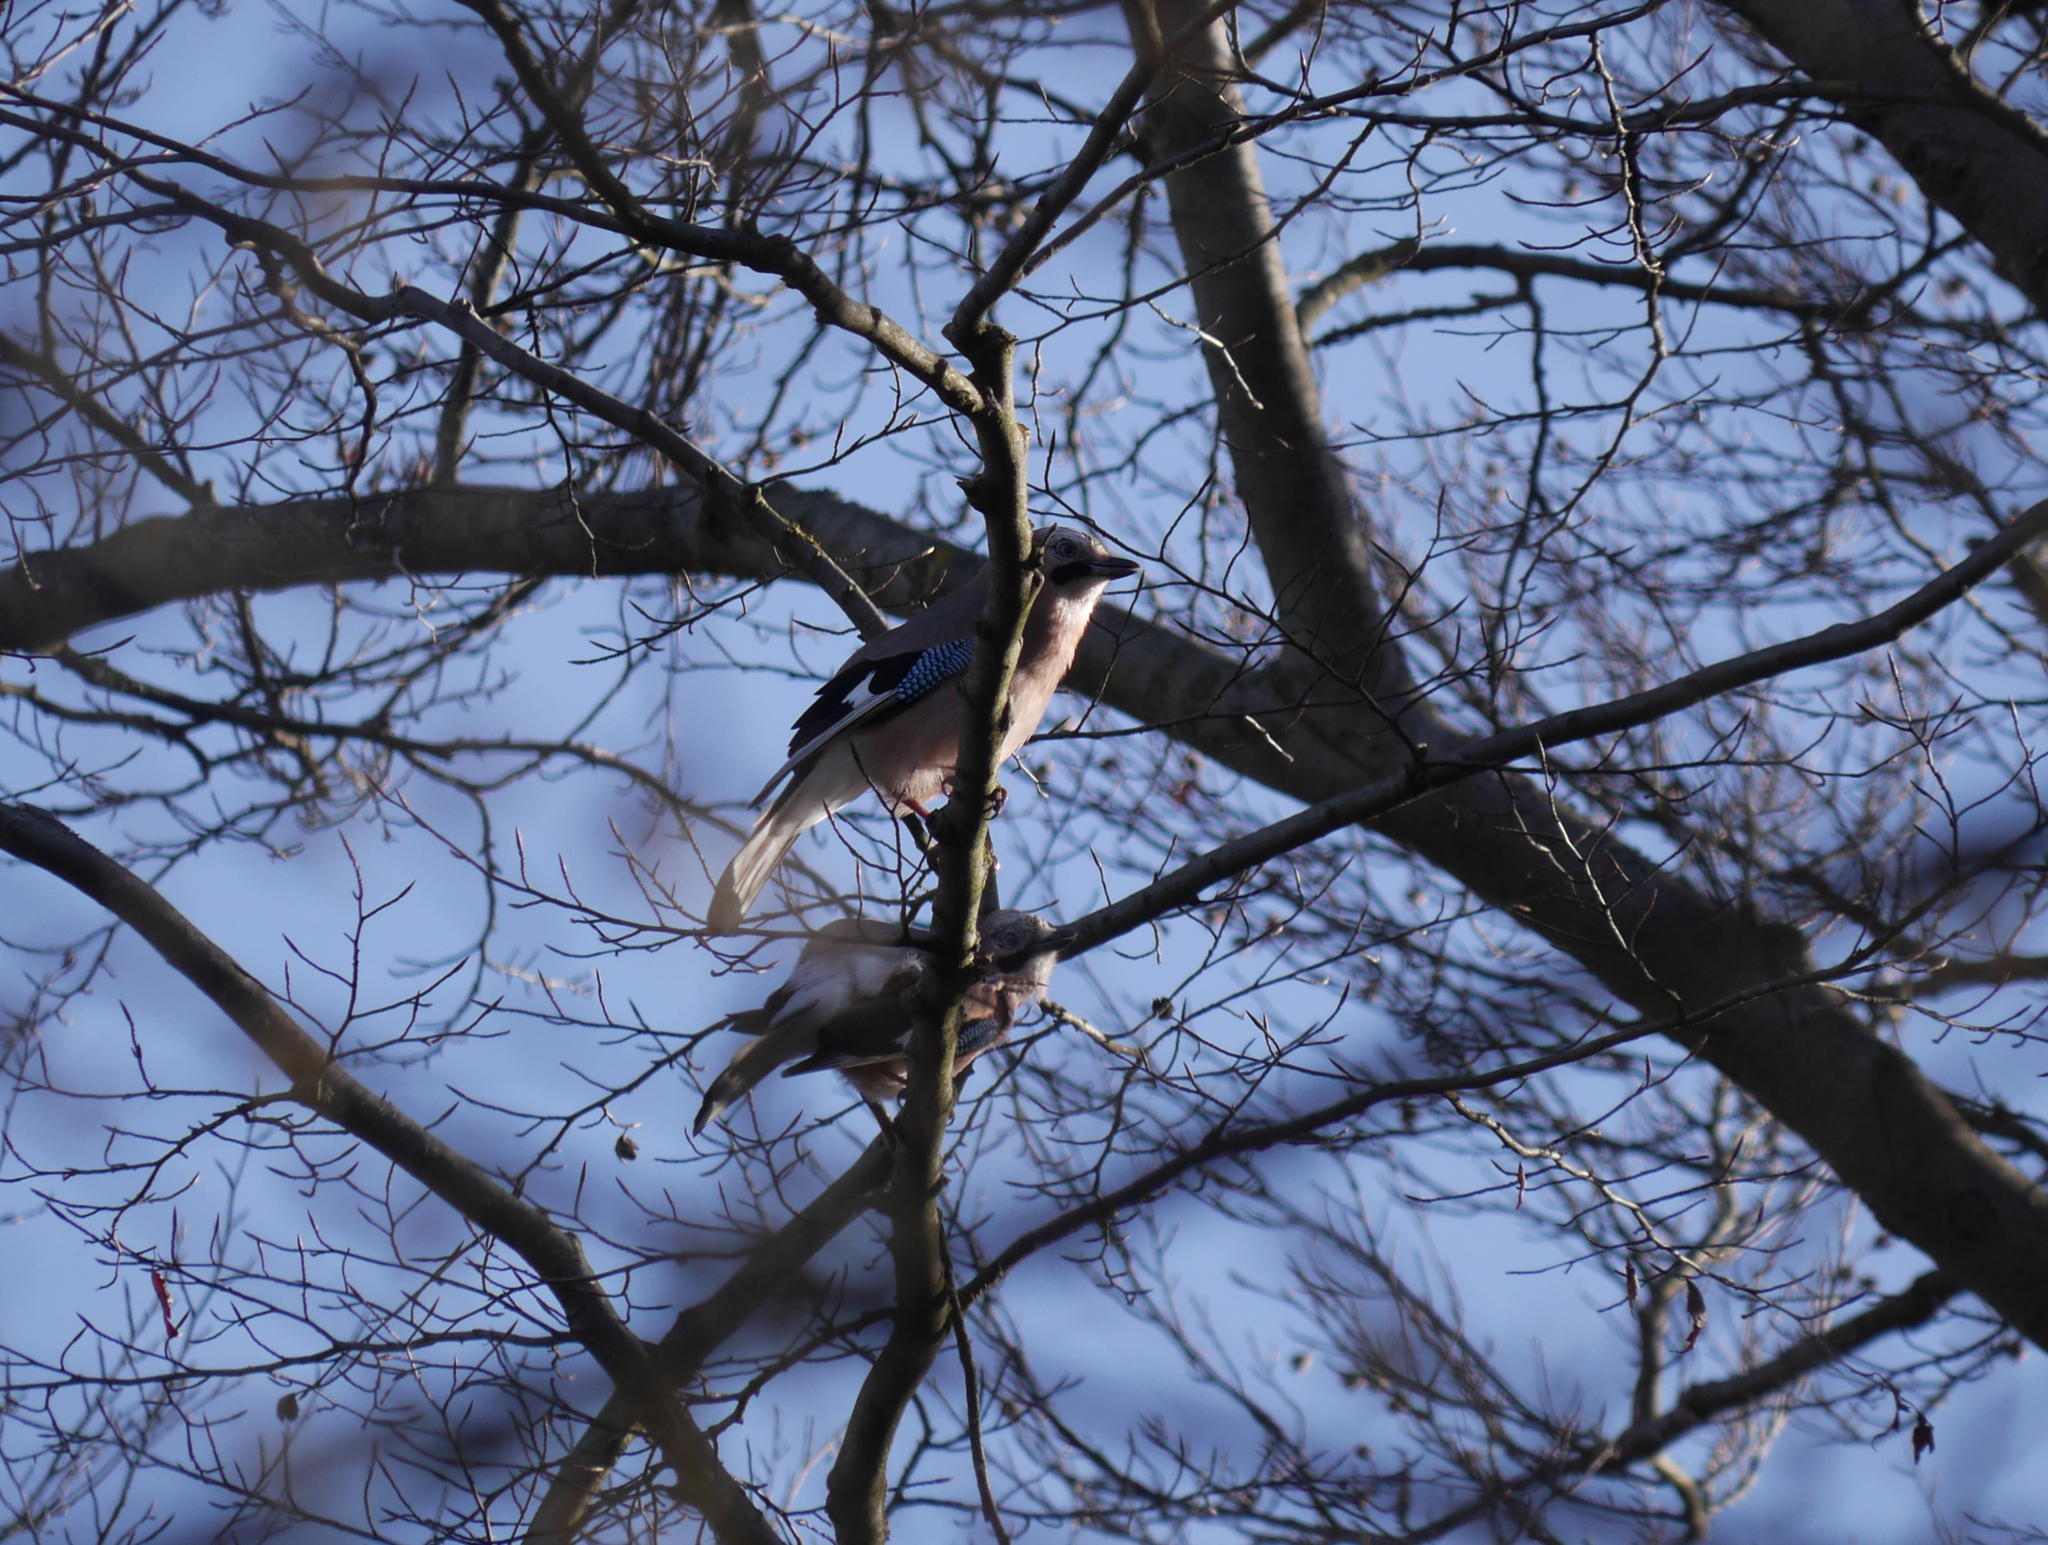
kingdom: Animalia
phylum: Chordata
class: Aves
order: Passeriformes
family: Corvidae
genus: Garrulus
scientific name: Garrulus glandarius
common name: Eurasian jay
